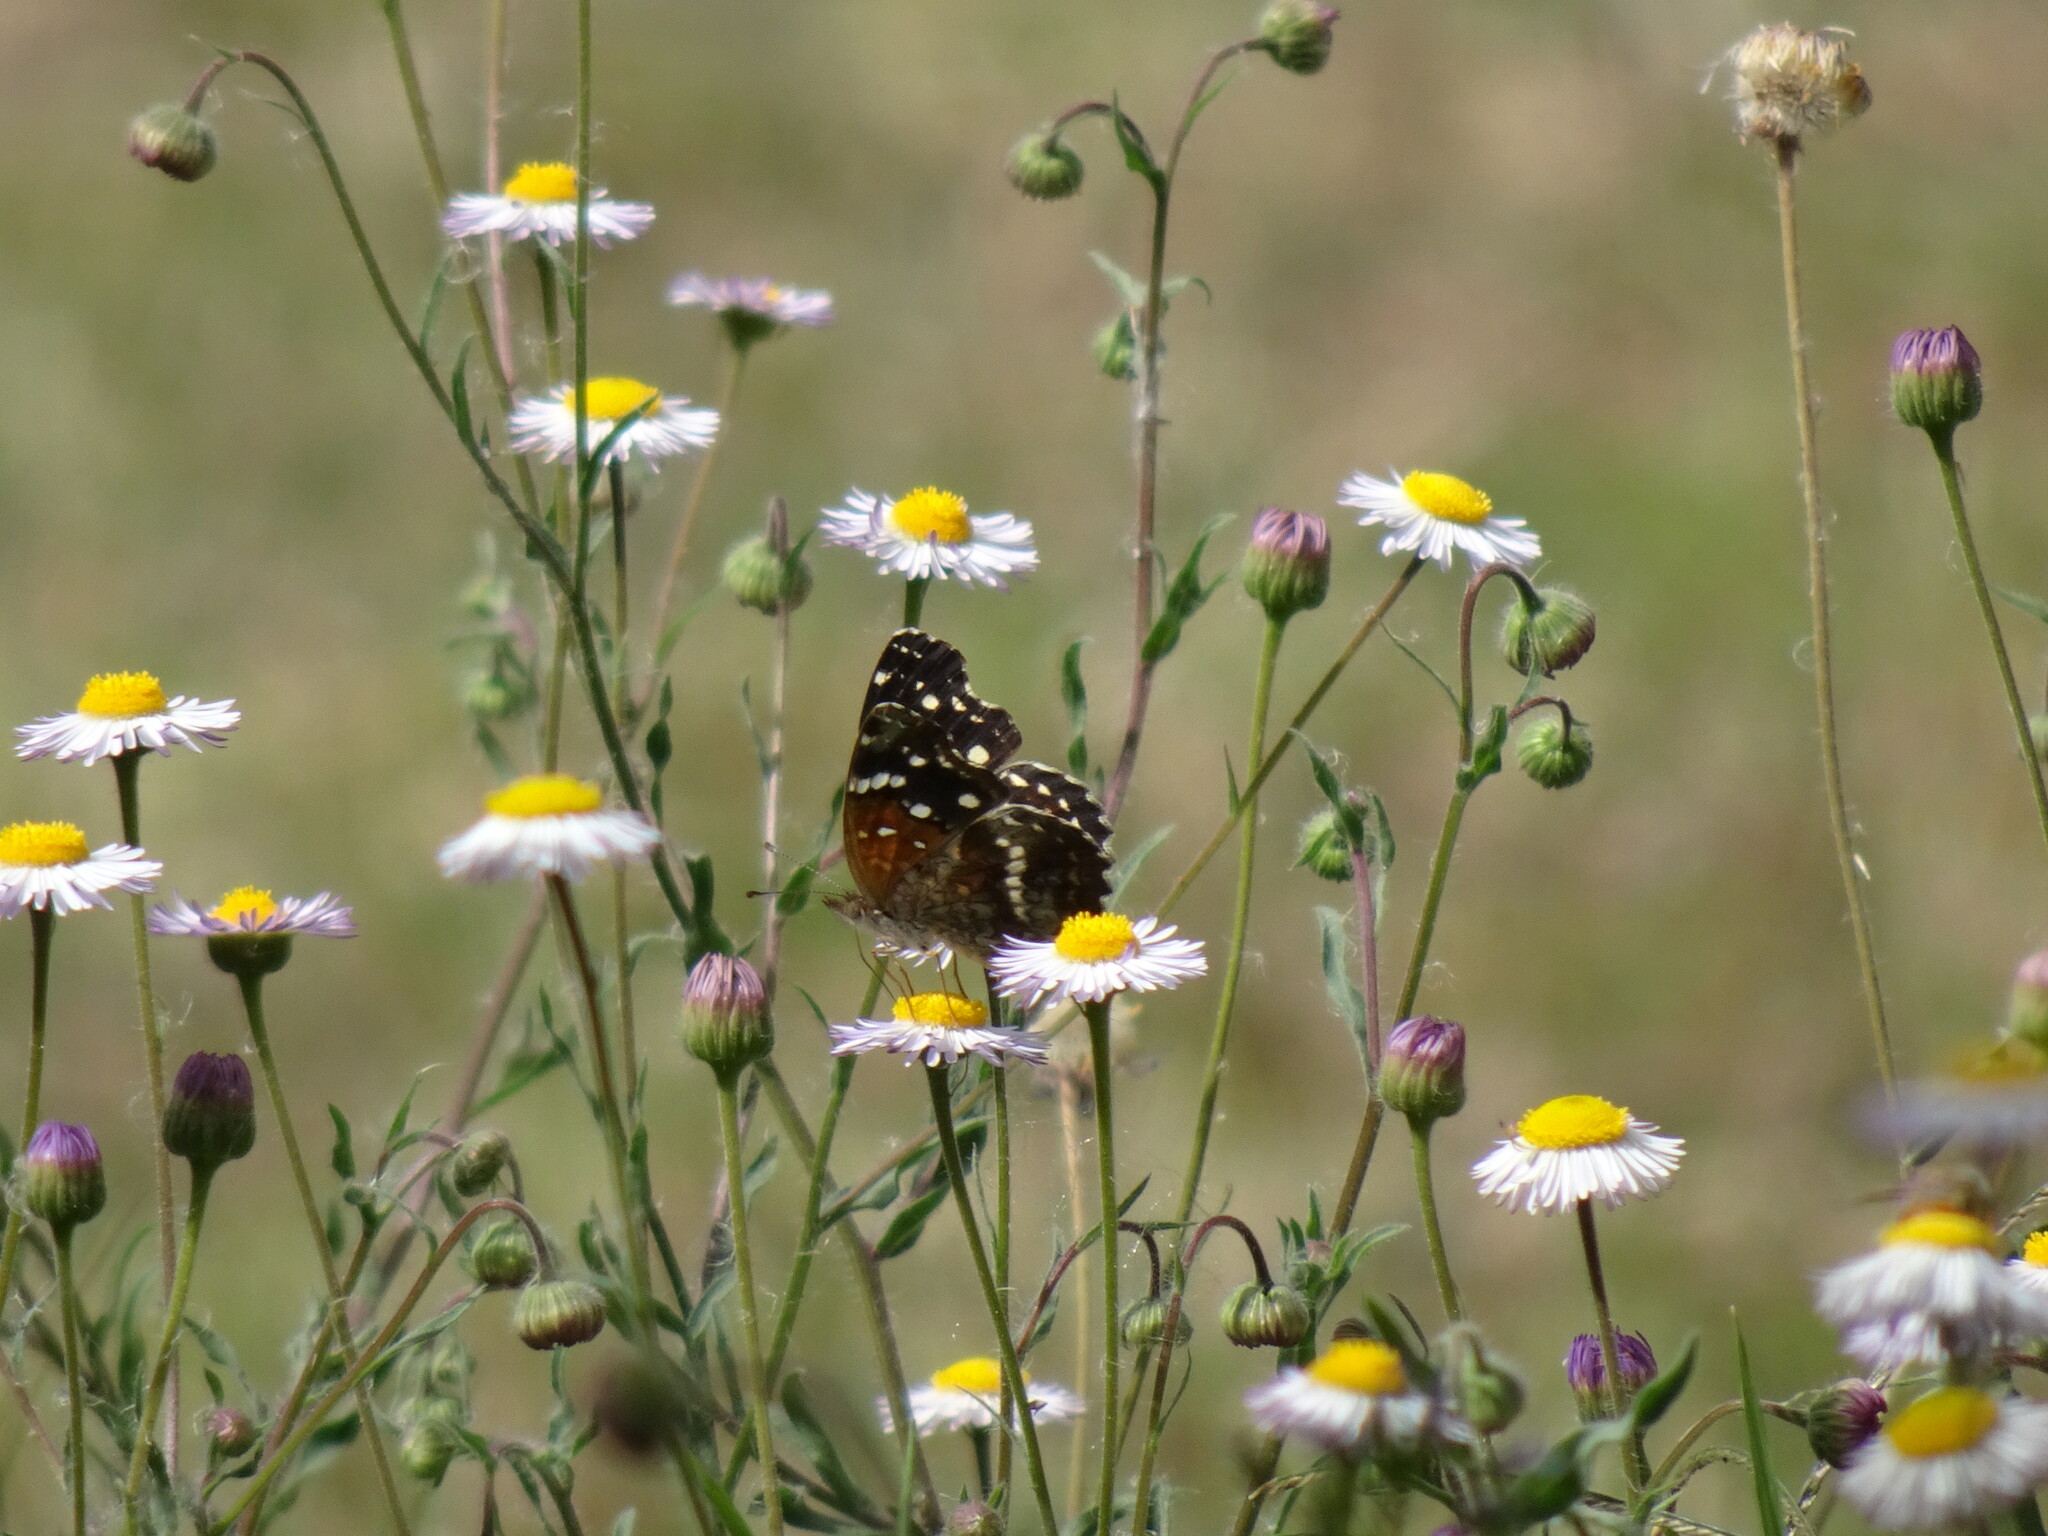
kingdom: Animalia
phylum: Arthropoda
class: Insecta
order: Lepidoptera
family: Nymphalidae
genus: Anthanassa
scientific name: Anthanassa texana
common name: Texan crescent
